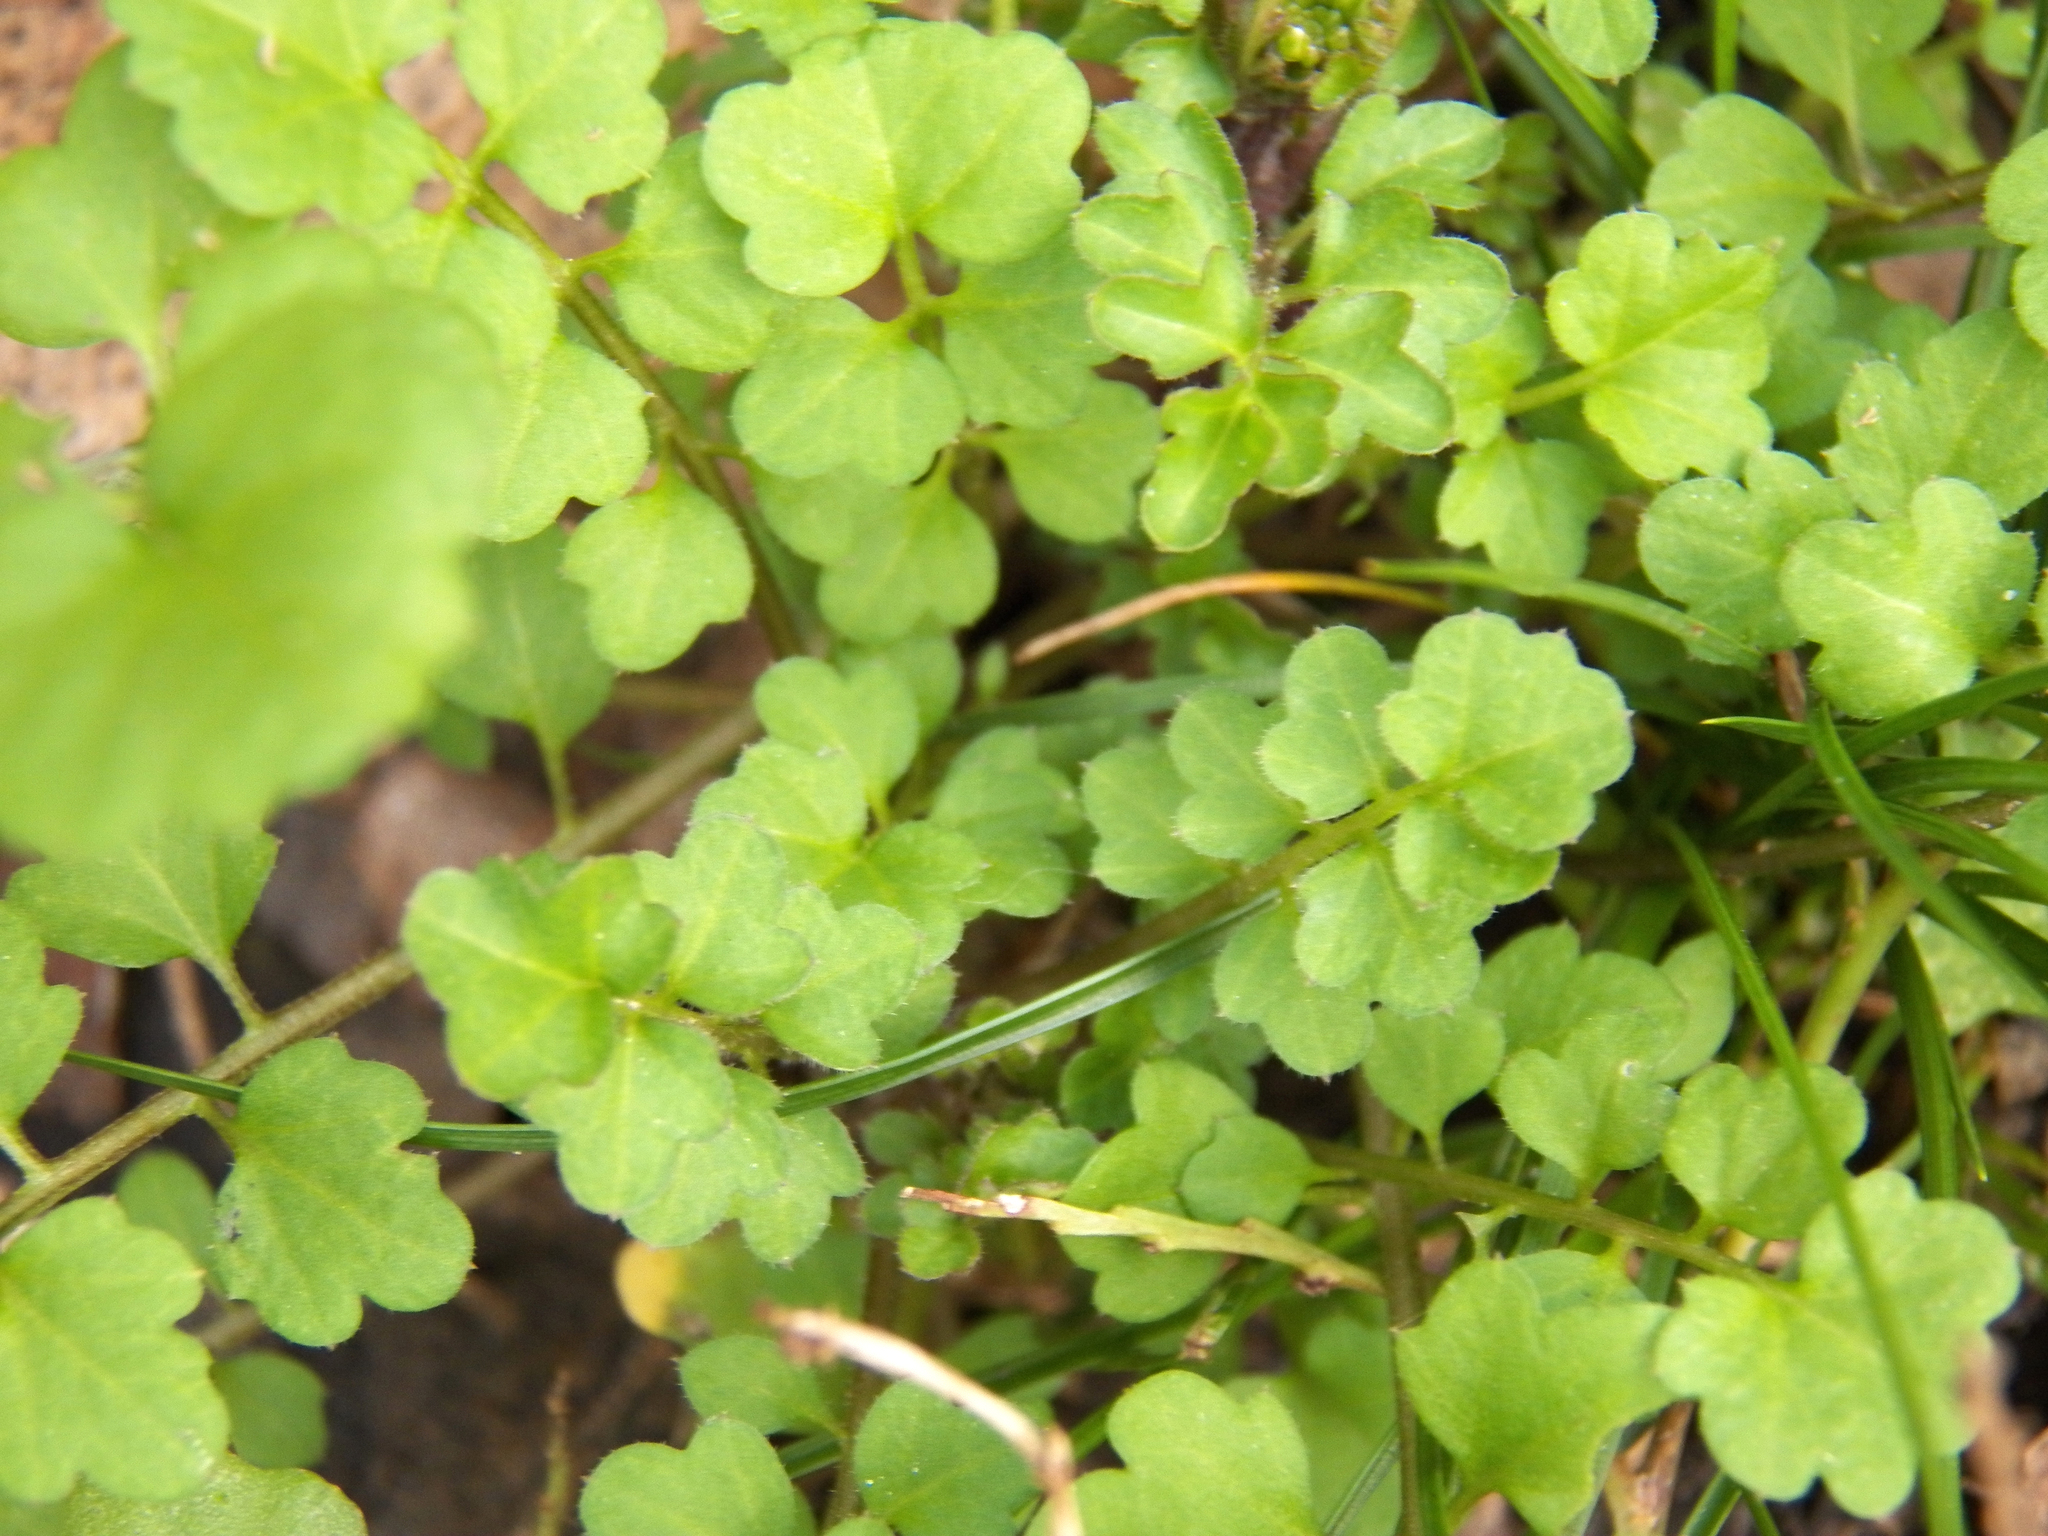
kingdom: Plantae
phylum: Tracheophyta
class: Magnoliopsida
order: Brassicales
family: Brassicaceae
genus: Cardamine
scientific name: Cardamine occulta
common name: Asian wavy bittercress
